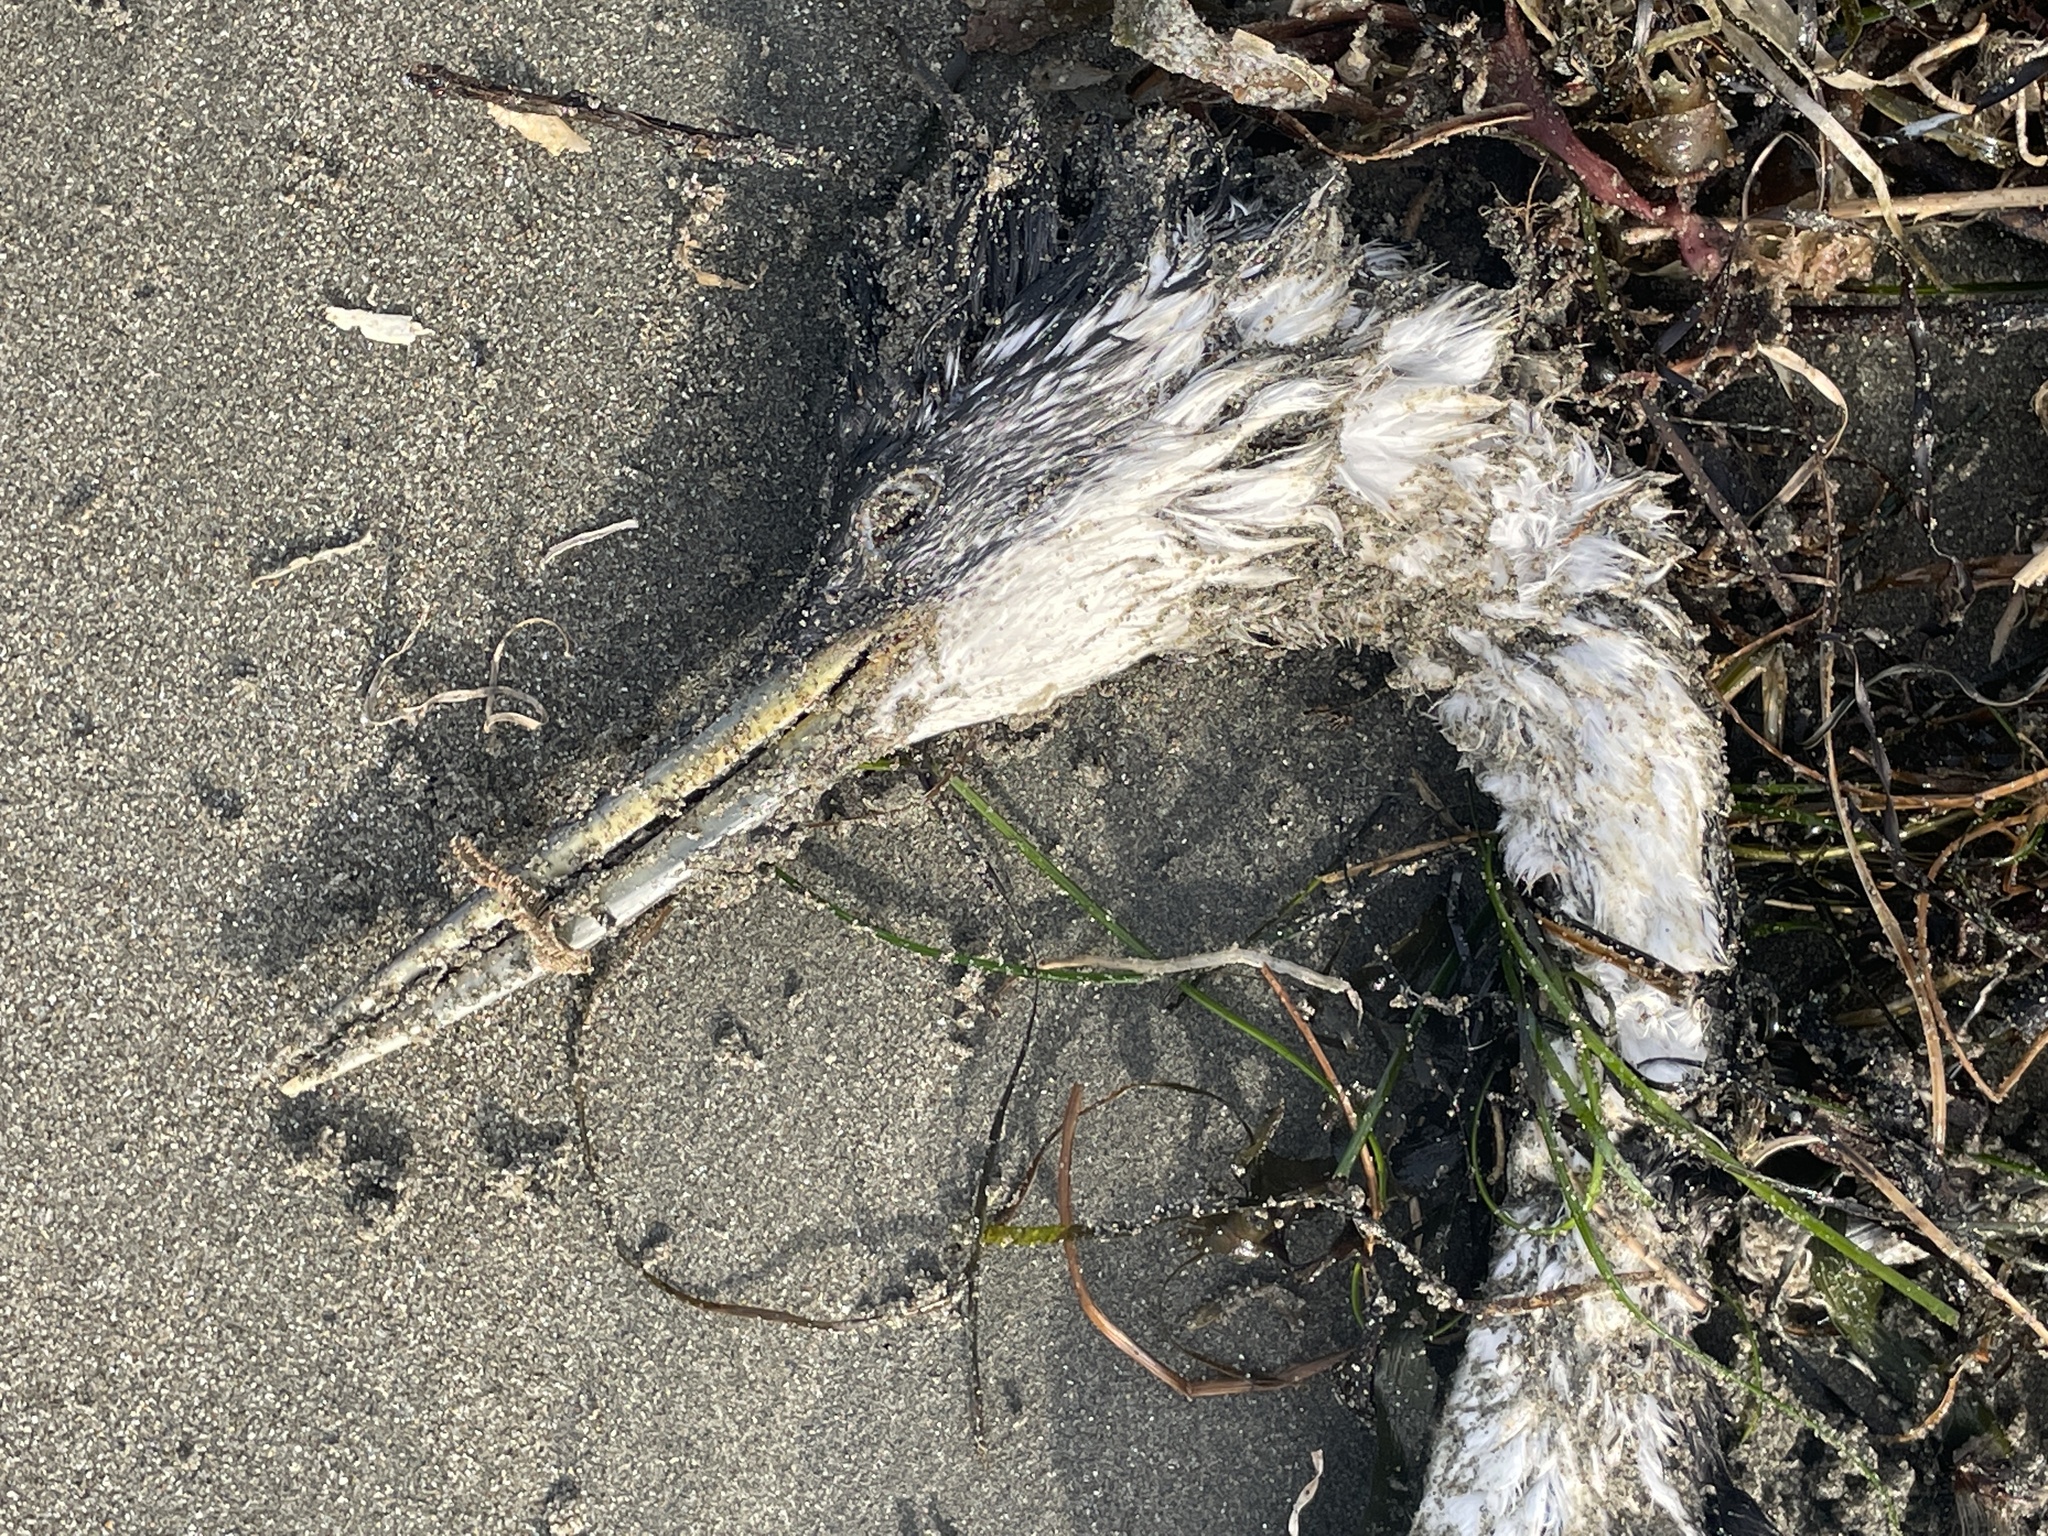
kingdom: Animalia
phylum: Chordata
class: Aves
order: Podicipediformes
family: Podicipedidae
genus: Aechmophorus
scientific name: Aechmophorus occidentalis
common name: Western grebe
